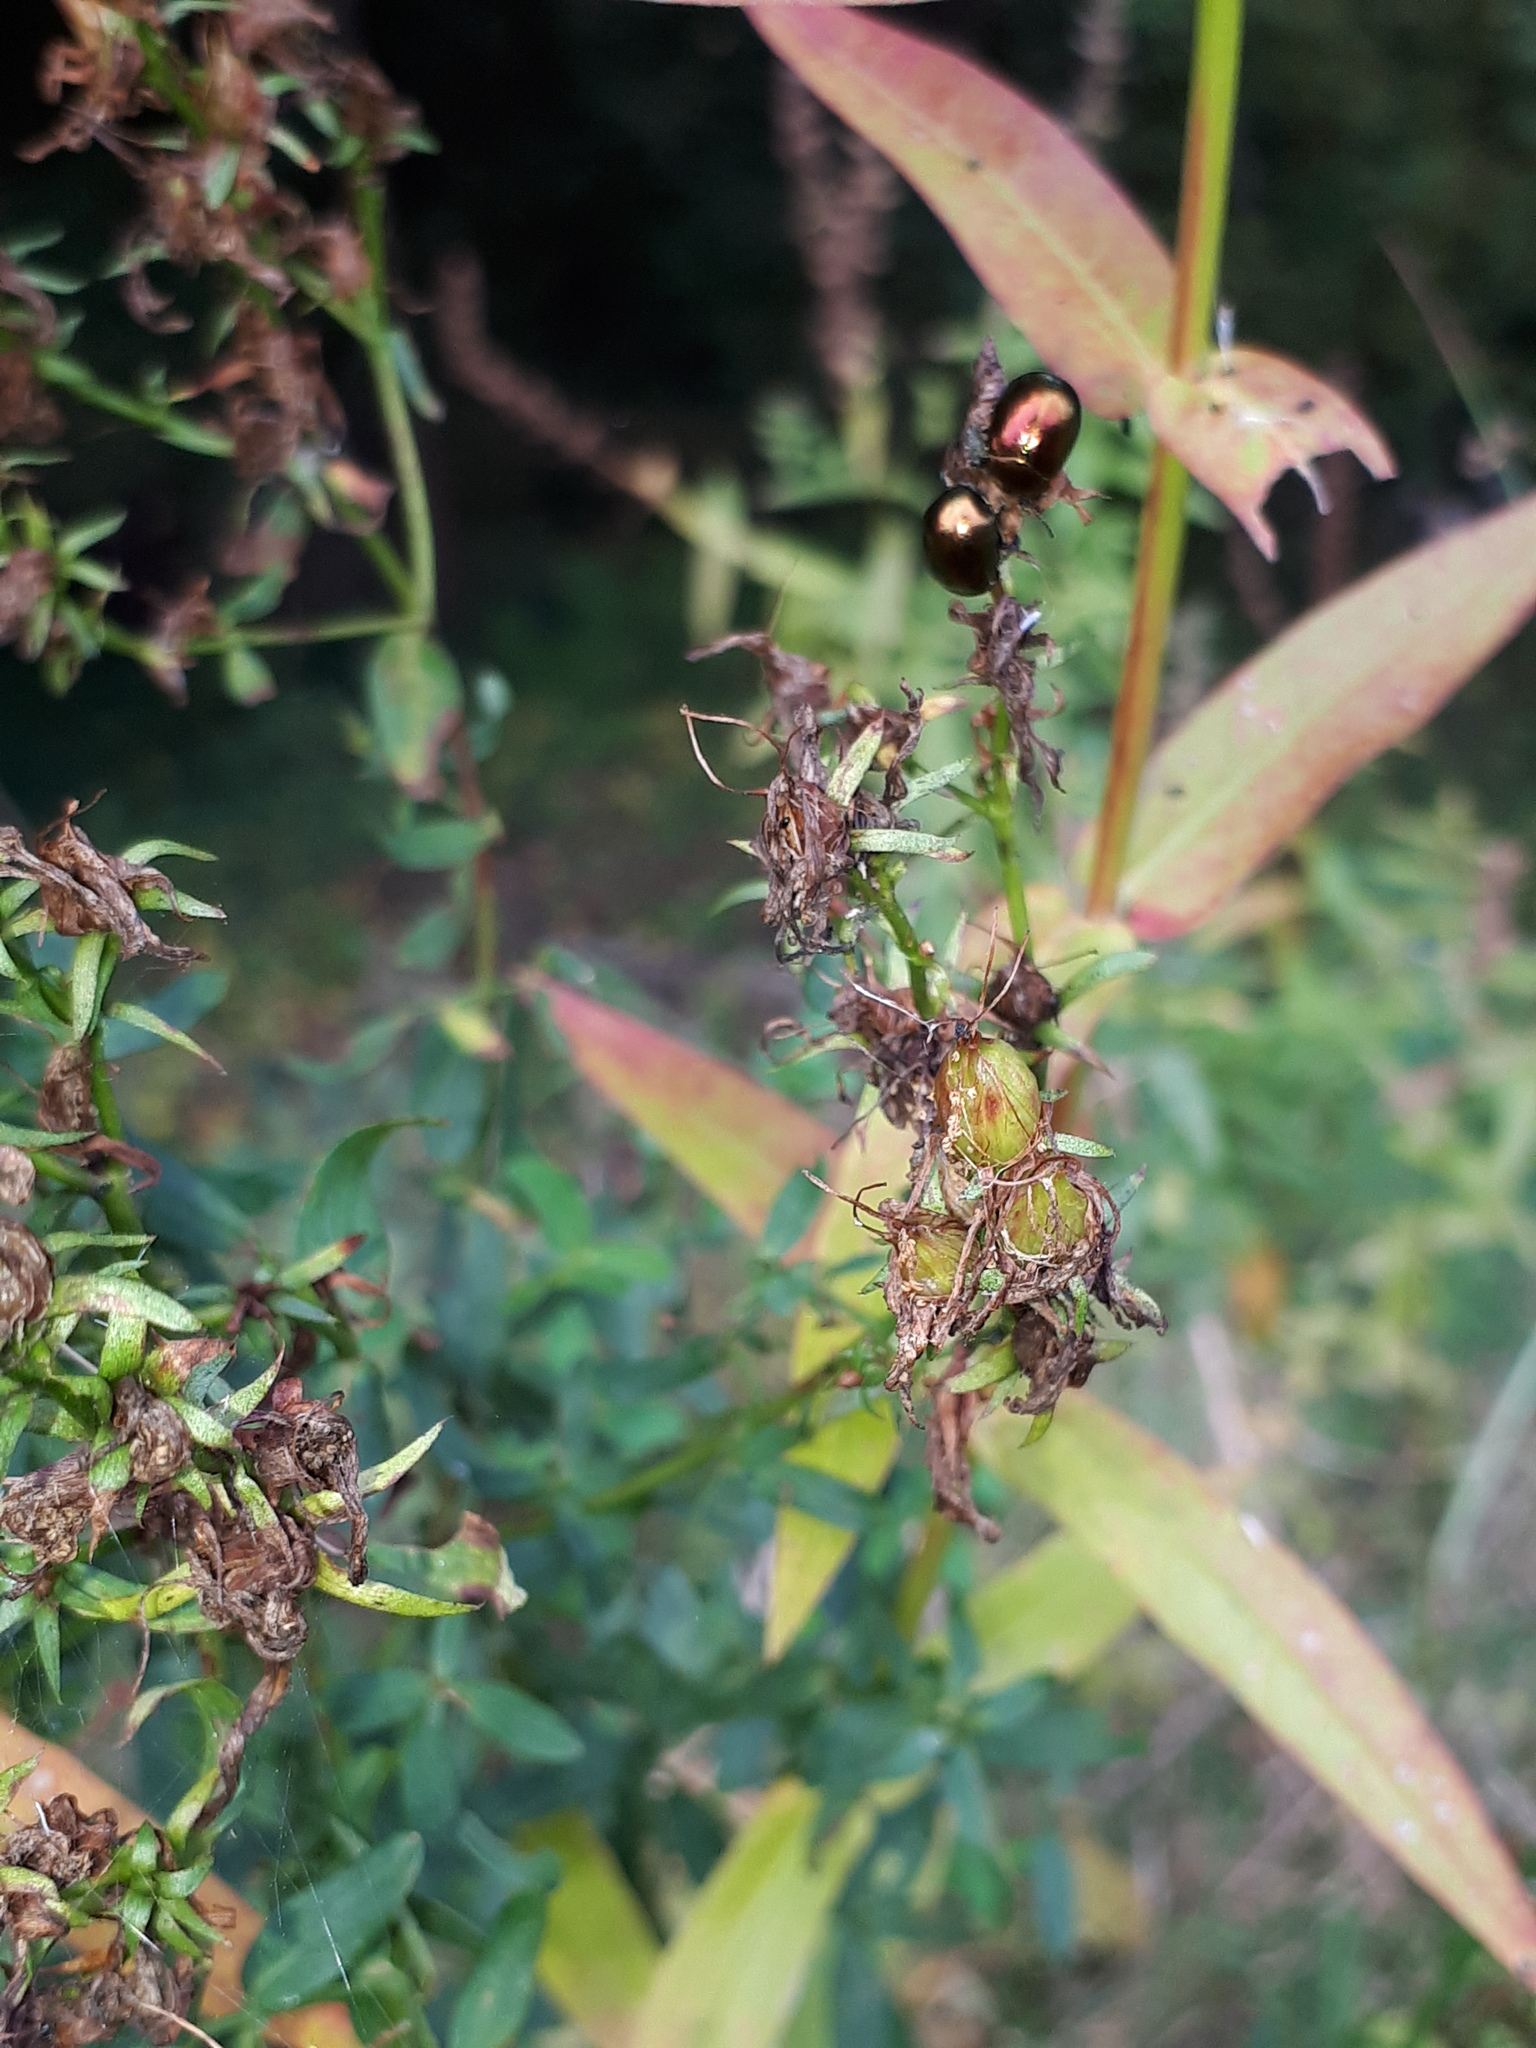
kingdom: Animalia
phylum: Arthropoda
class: Insecta
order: Coleoptera
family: Chrysomelidae
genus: Chrysolina
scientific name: Chrysolina varians
